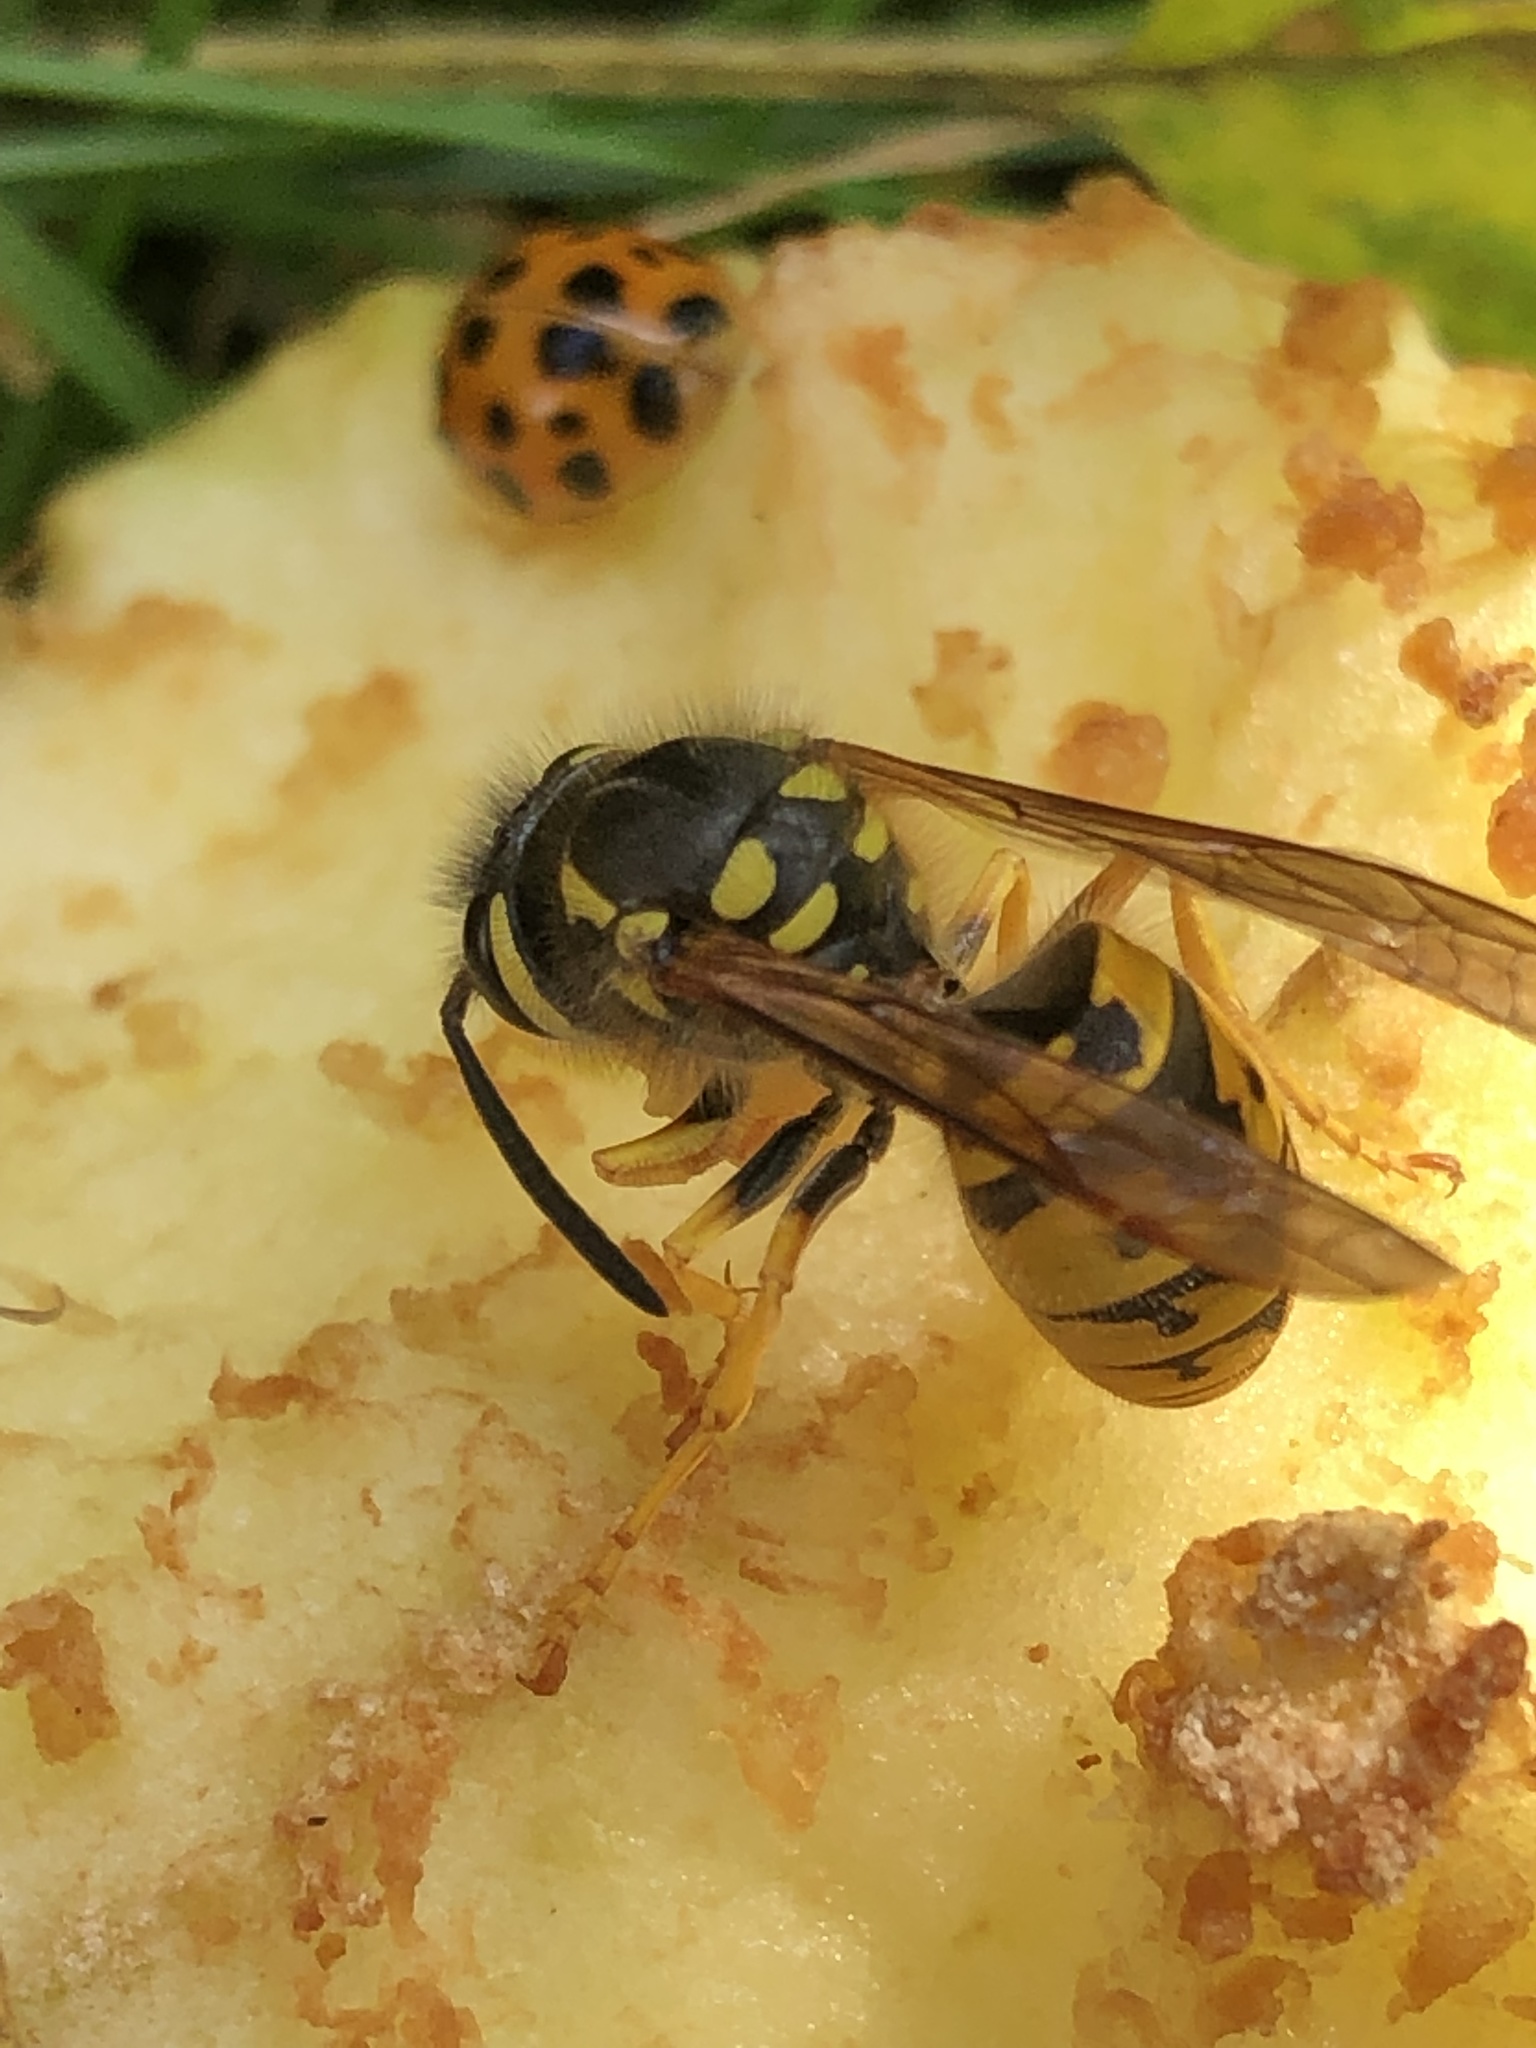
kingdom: Animalia
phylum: Arthropoda
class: Insecta
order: Hymenoptera
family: Vespidae
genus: Vespula
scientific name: Vespula germanica
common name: German wasp
